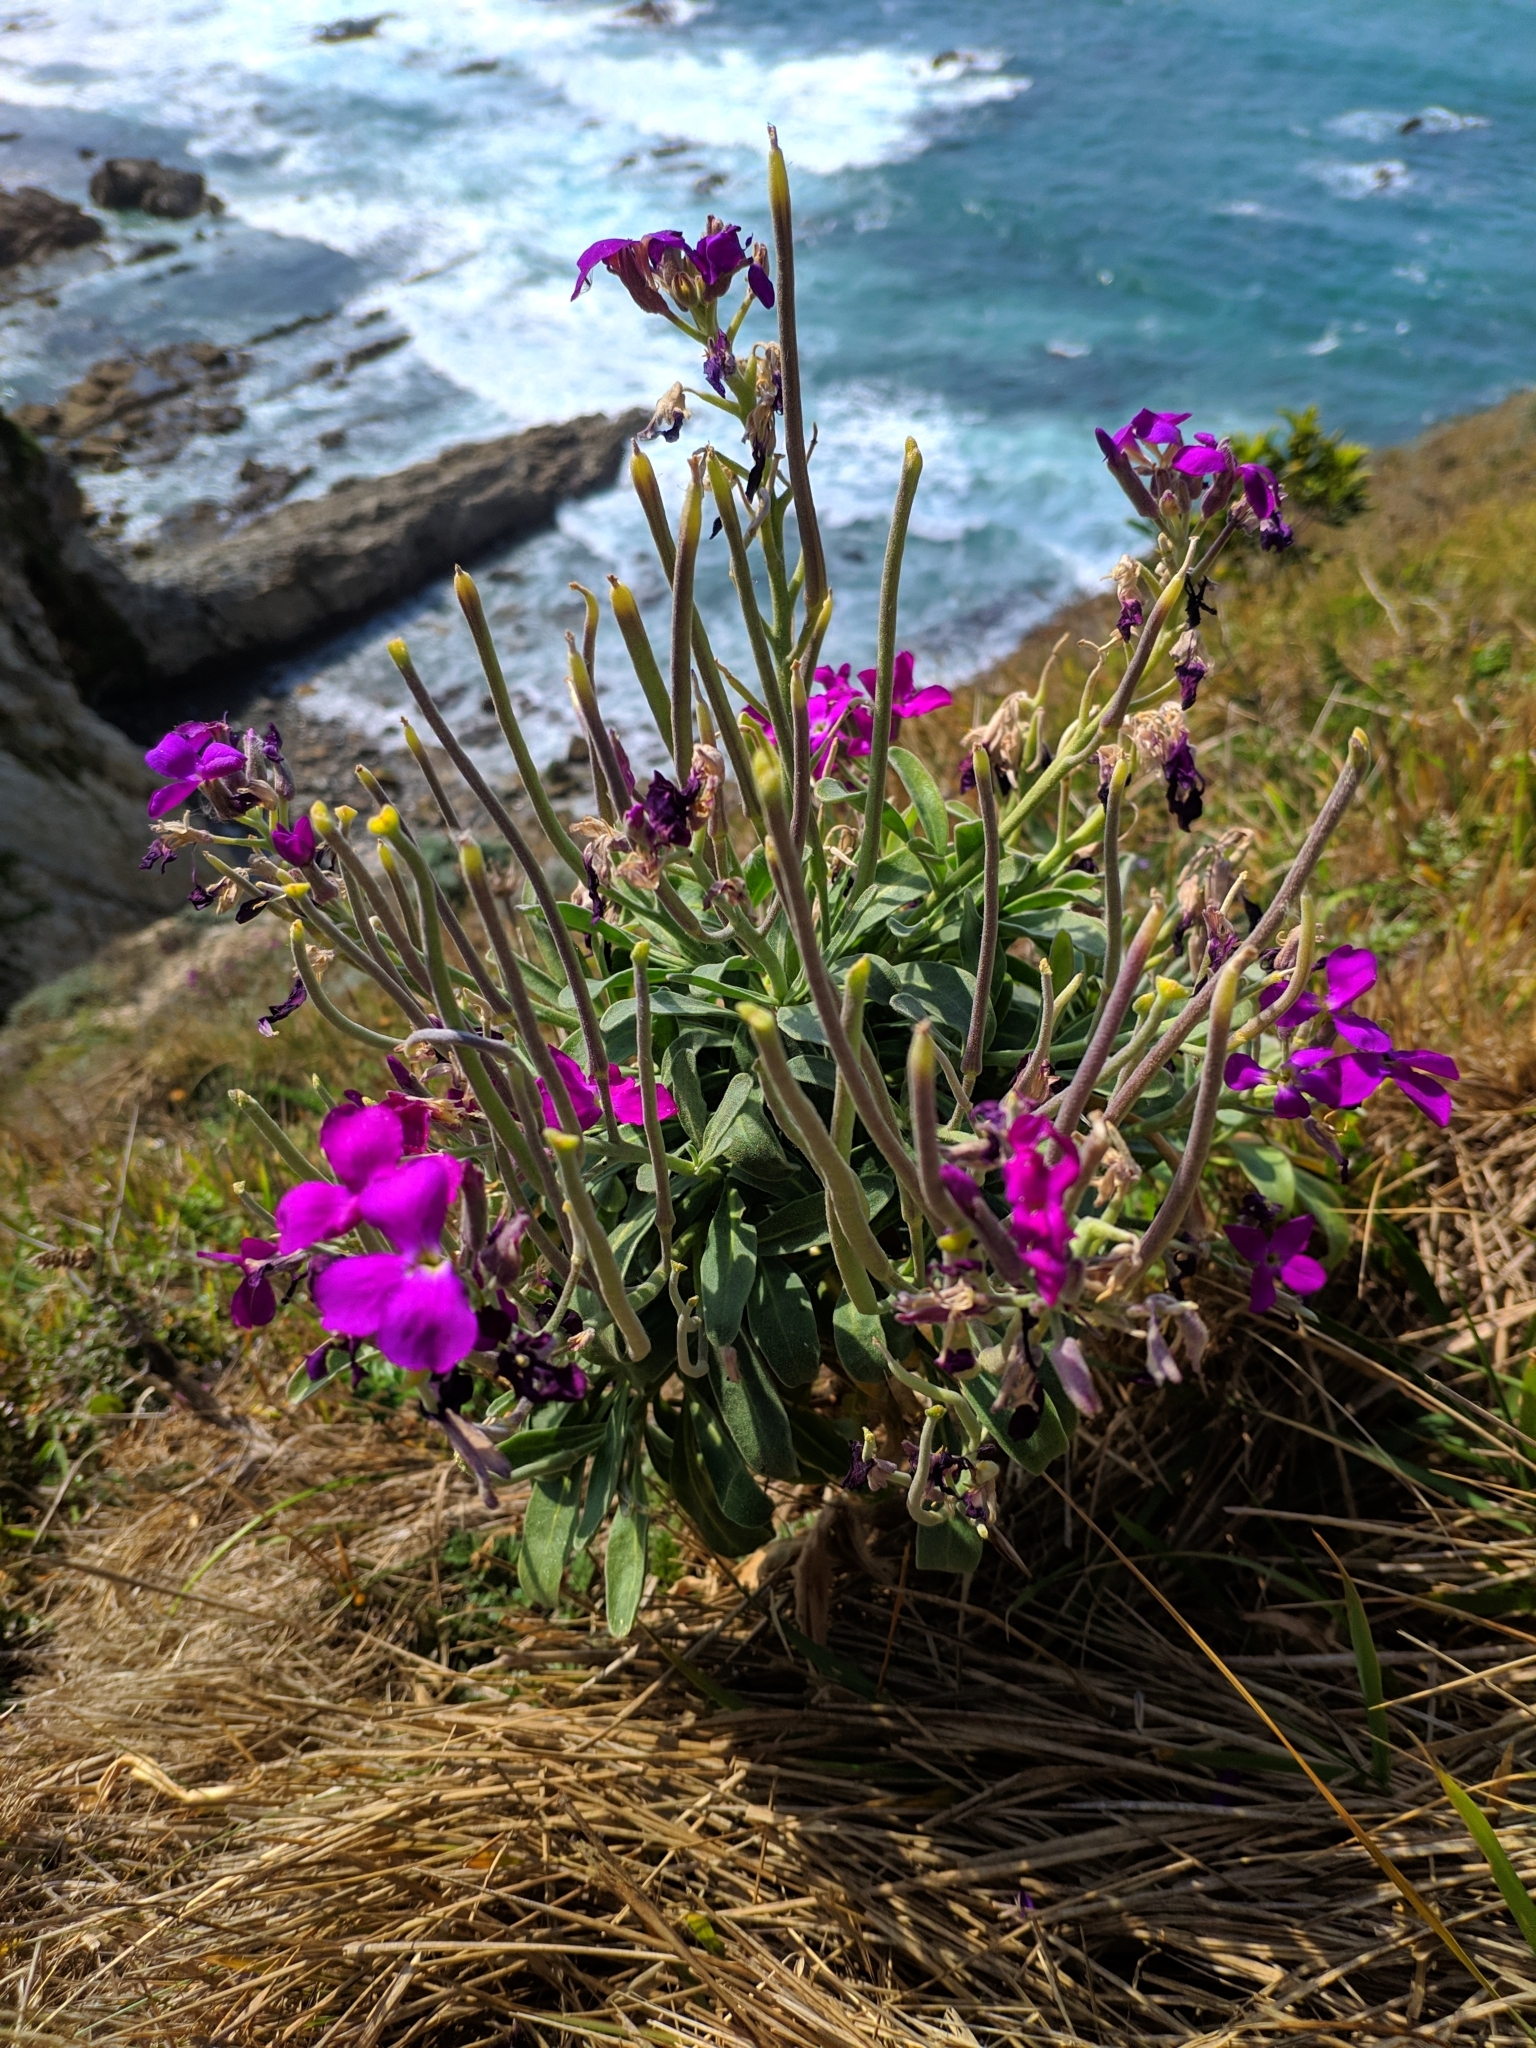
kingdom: Plantae
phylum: Tracheophyta
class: Magnoliopsida
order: Brassicales
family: Brassicaceae
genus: Matthiola
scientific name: Matthiola incana
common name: Hoary stock
